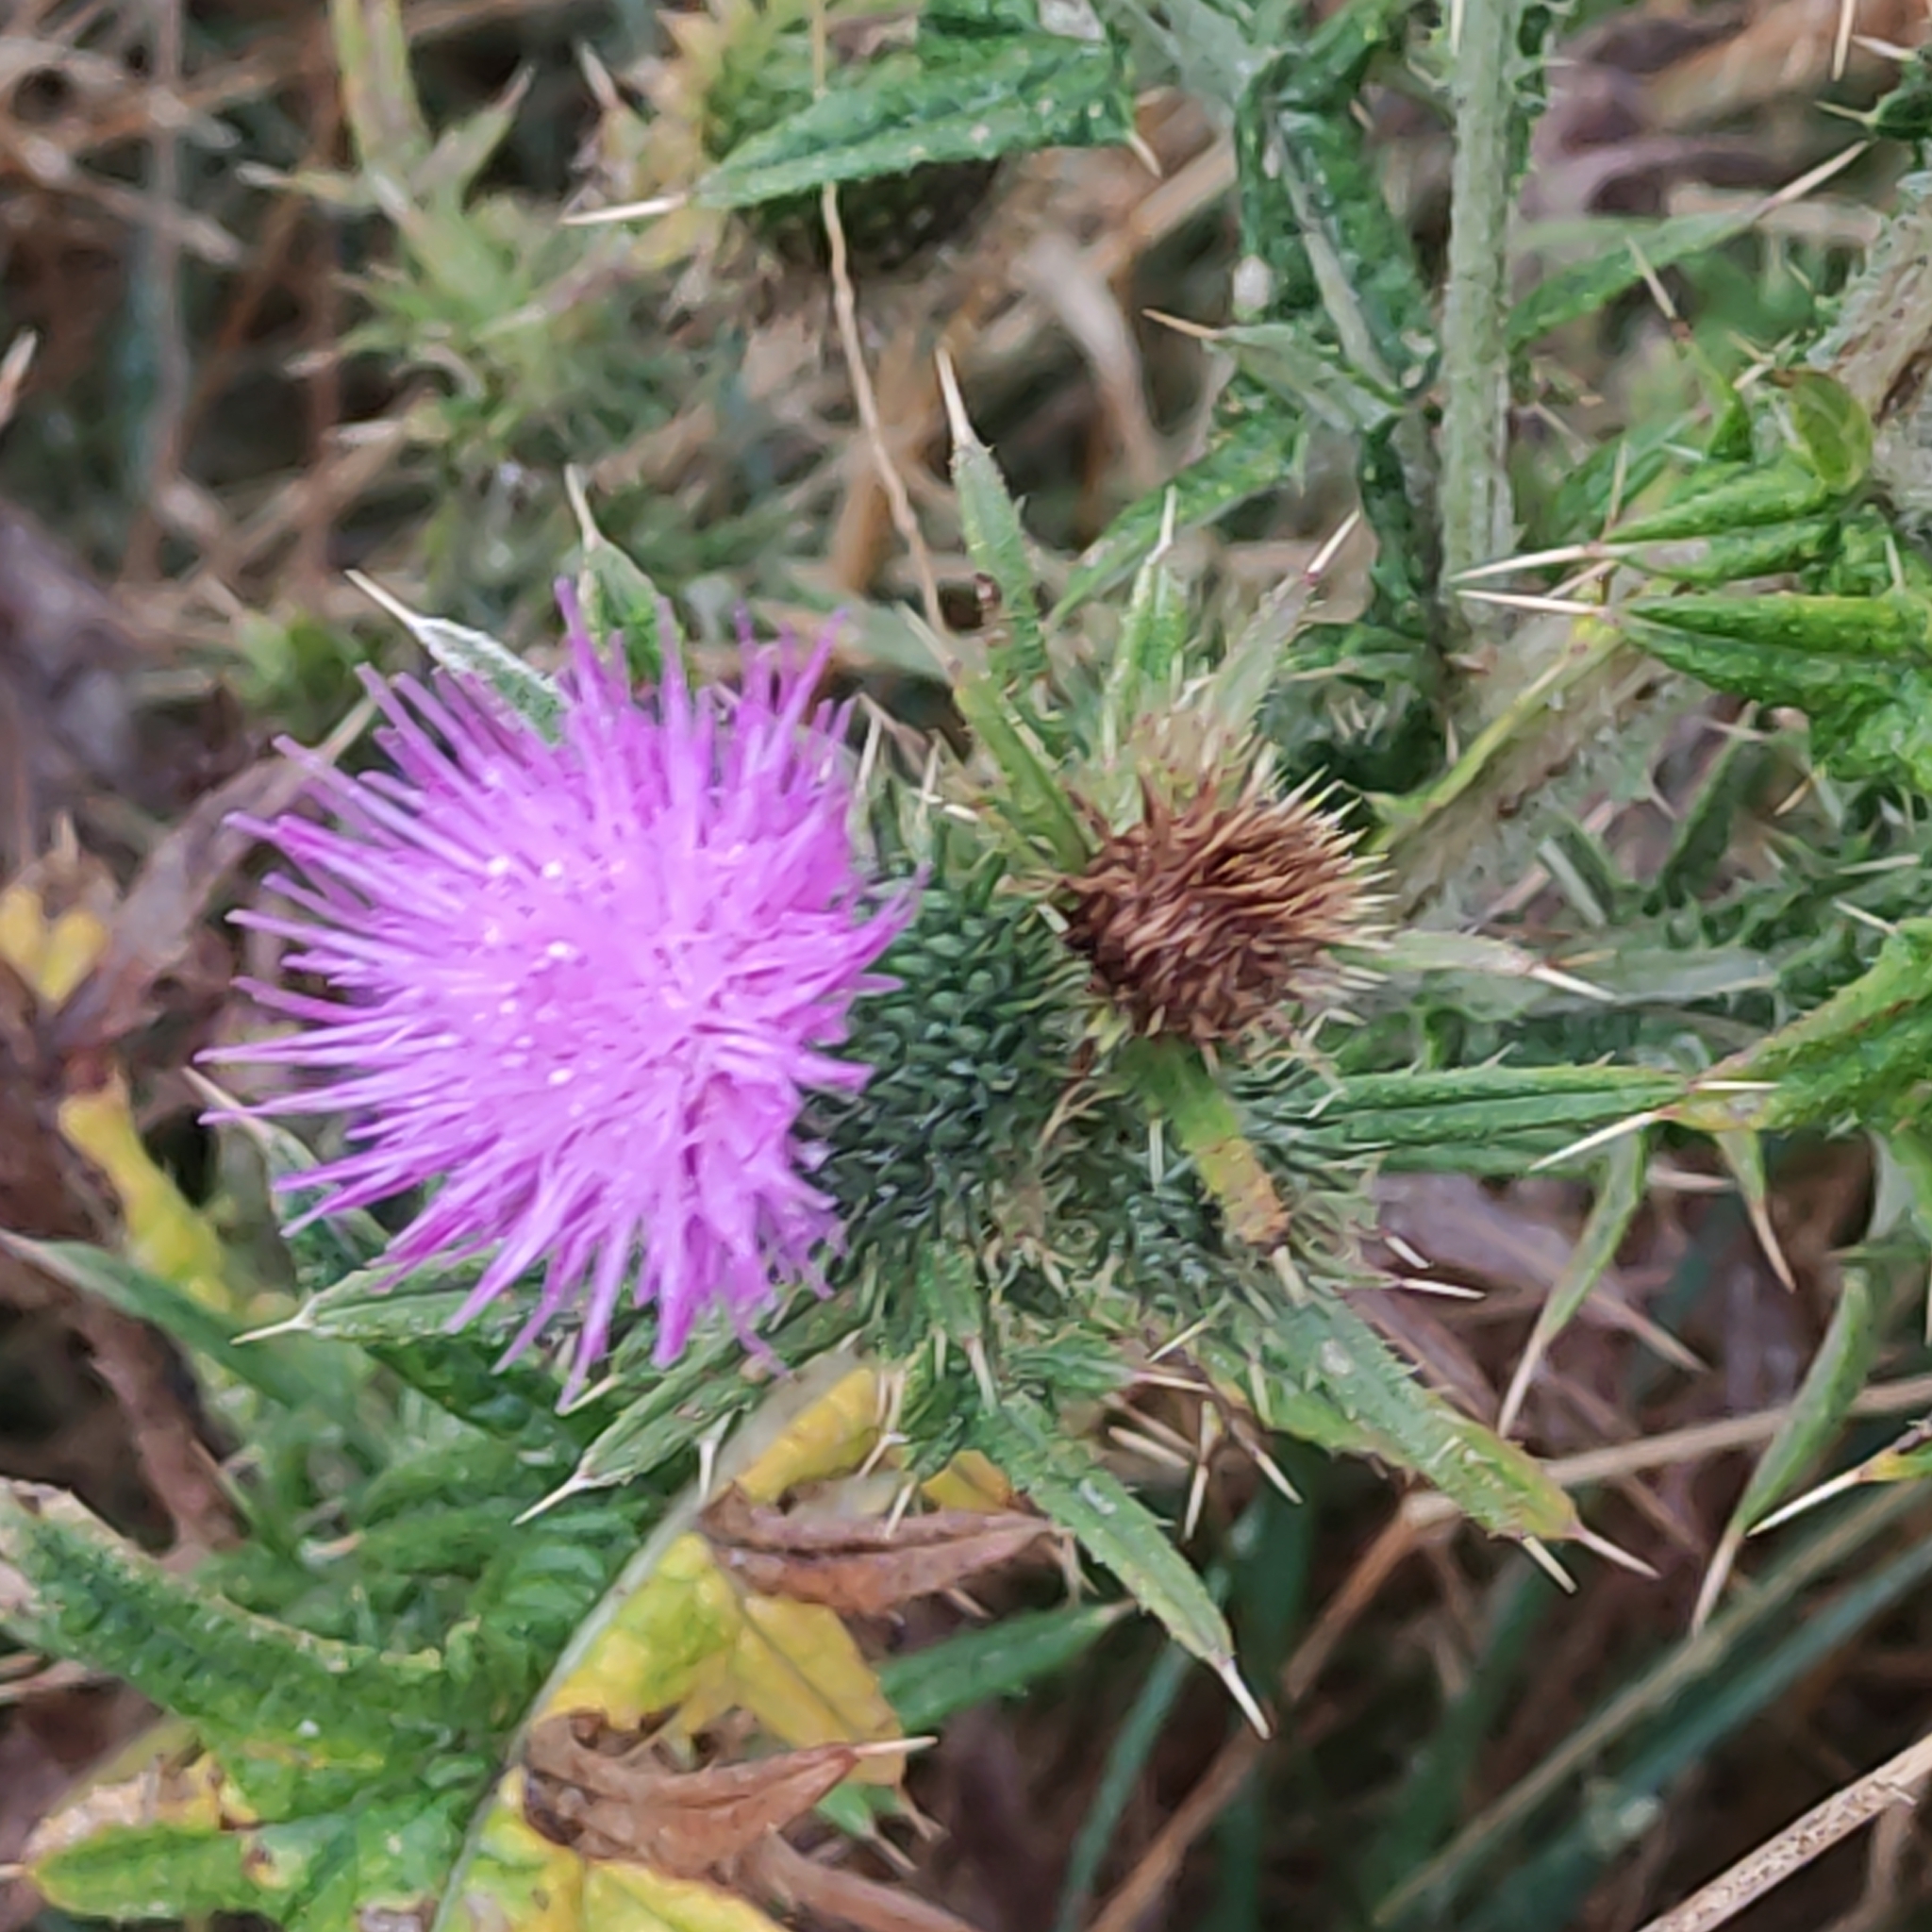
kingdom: Plantae
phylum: Tracheophyta
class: Magnoliopsida
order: Asterales
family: Asteraceae
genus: Cirsium
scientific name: Cirsium vulgare
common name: Bull thistle
